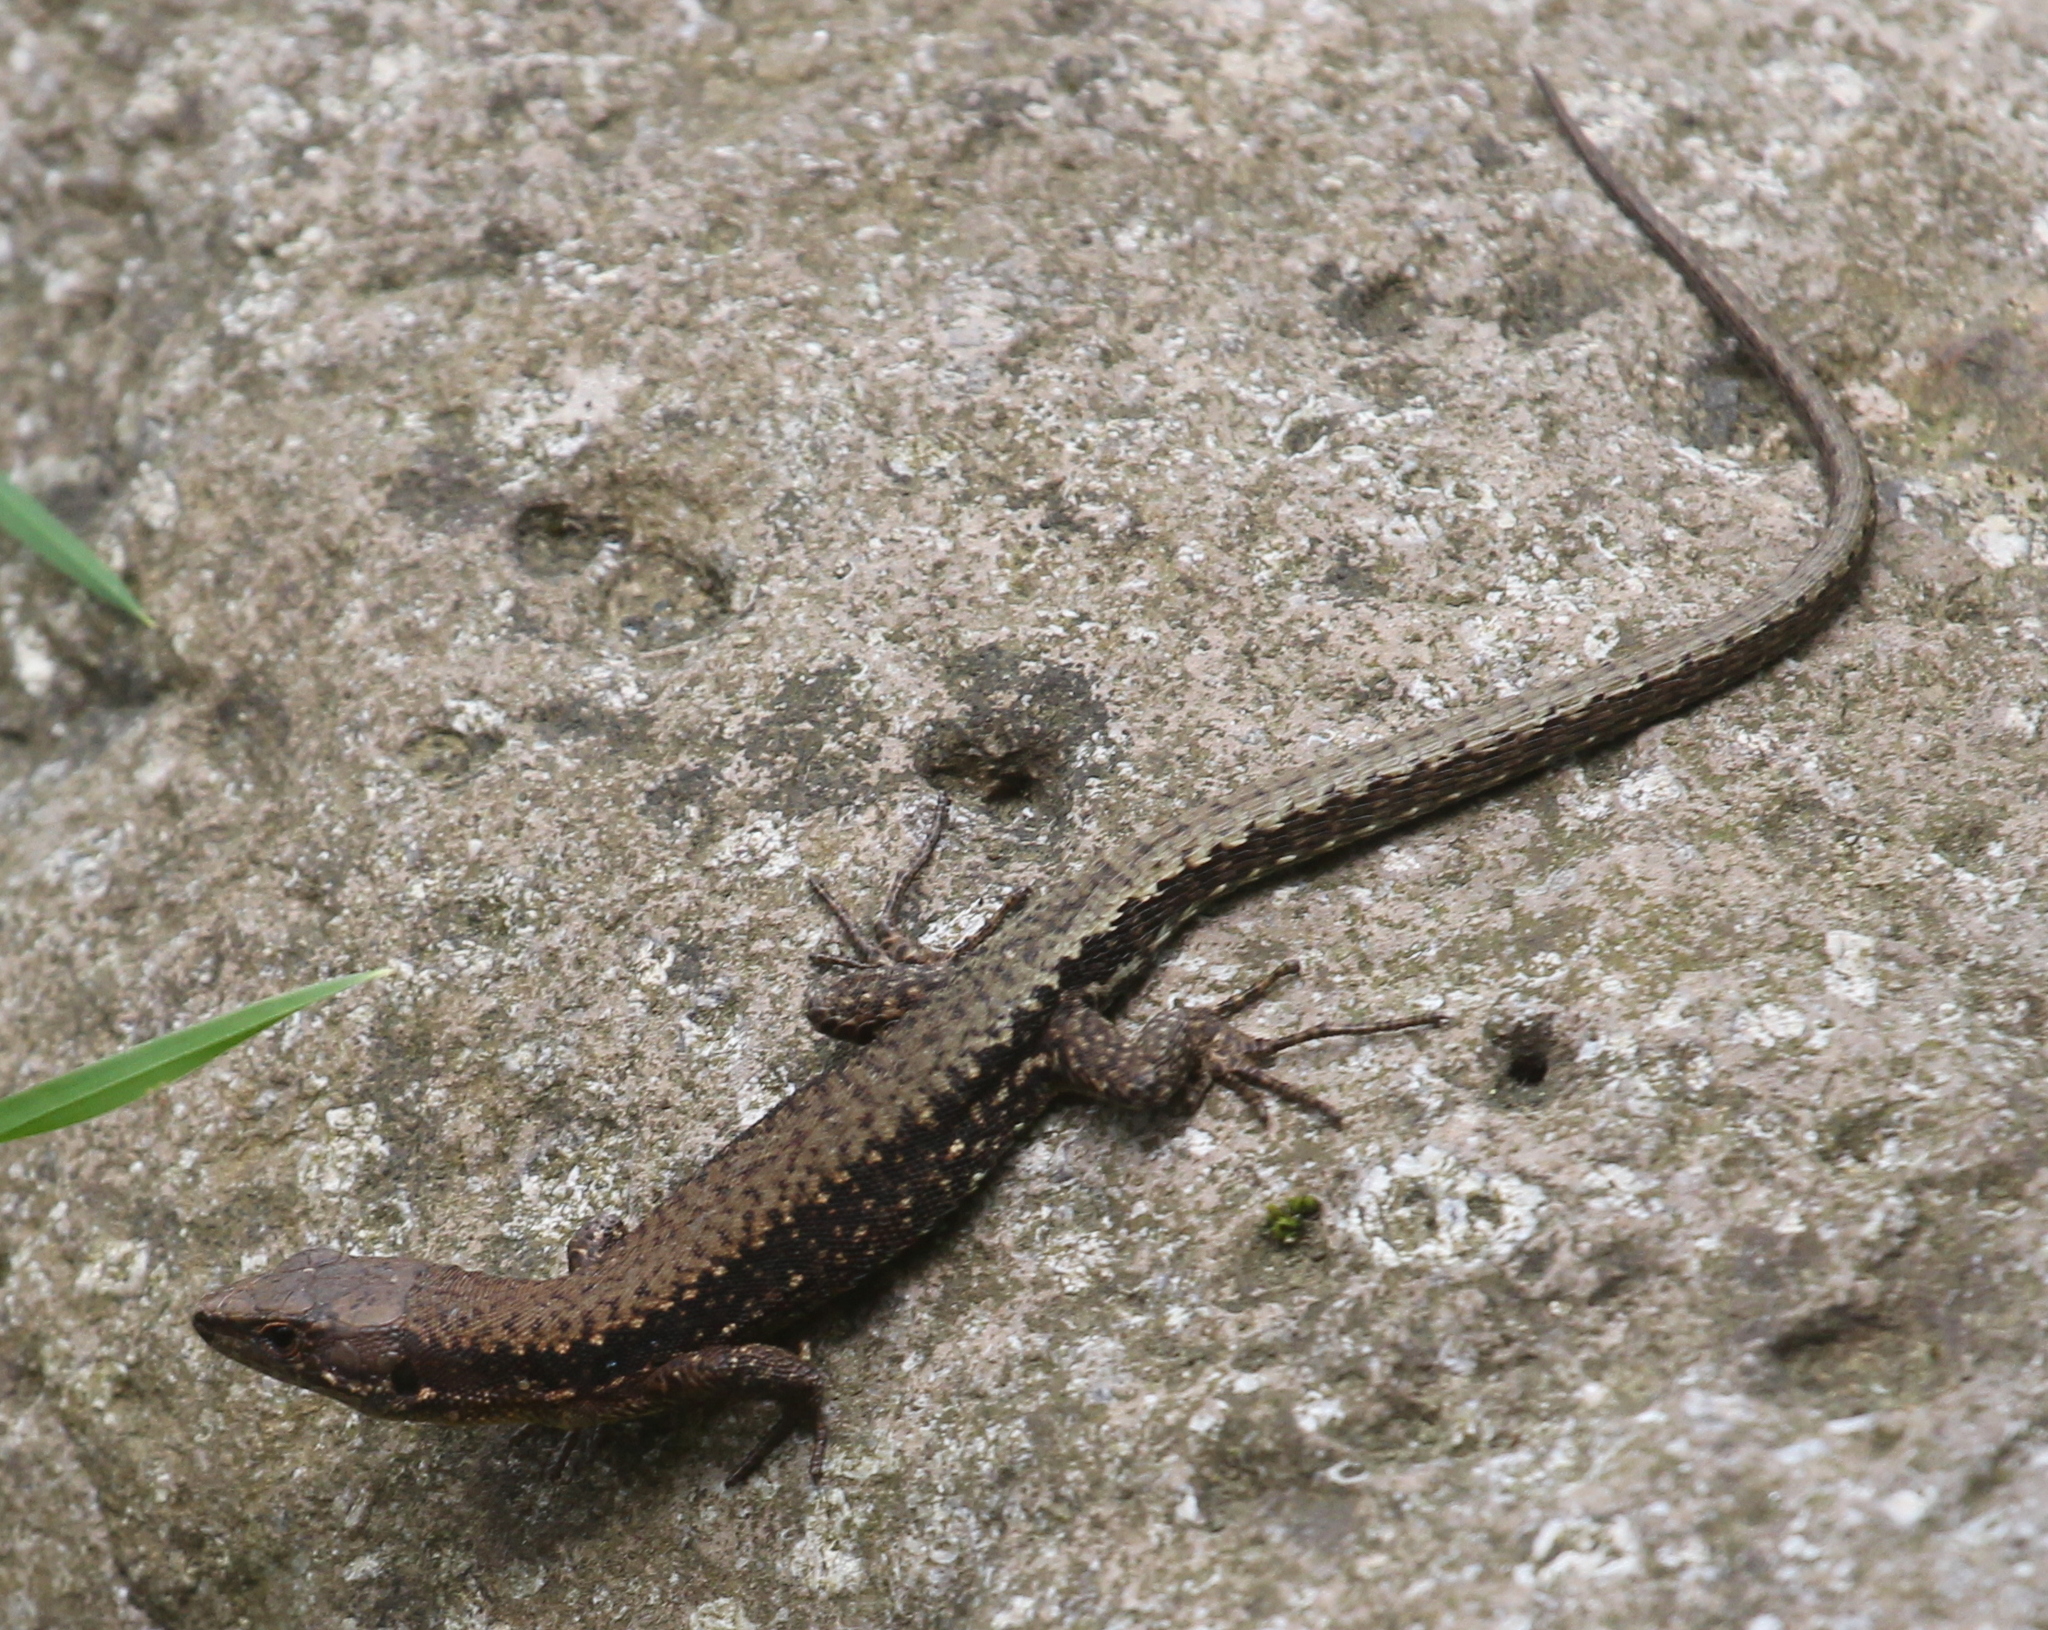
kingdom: Animalia
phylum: Chordata
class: Squamata
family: Lacertidae
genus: Darevskia
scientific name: Darevskia derjugini
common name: Derjugin's lizard
